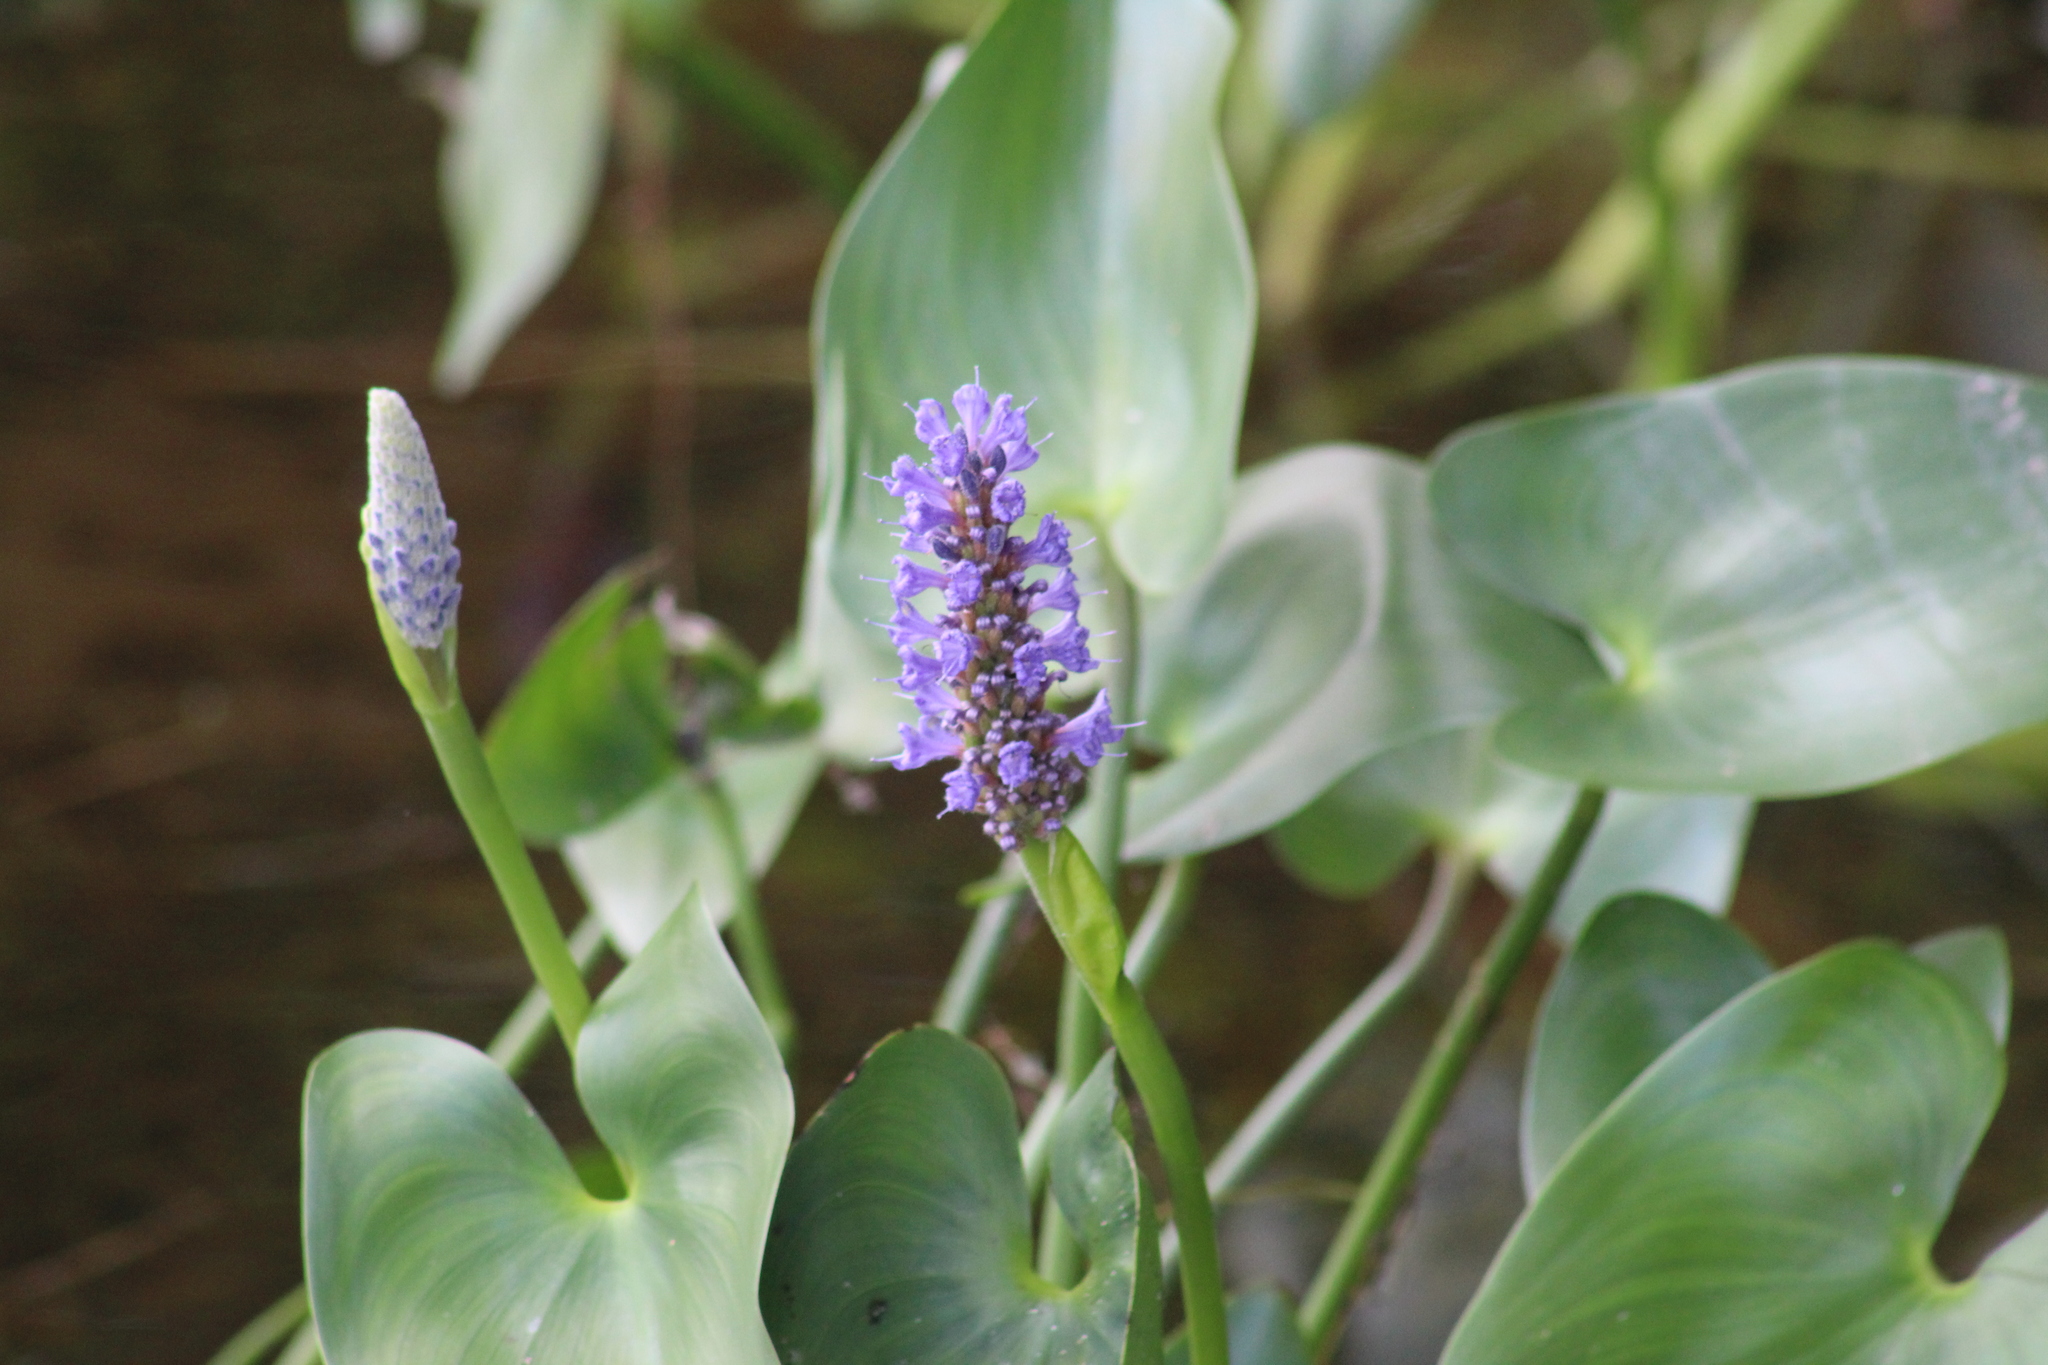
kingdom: Plantae
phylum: Tracheophyta
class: Liliopsida
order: Commelinales
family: Pontederiaceae
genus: Pontederia
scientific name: Pontederia cordata
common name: Pickerelweed
